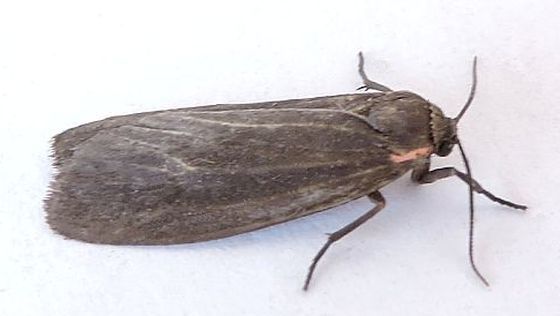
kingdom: Animalia
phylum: Arthropoda
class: Insecta
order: Lepidoptera
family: Erebidae
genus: Hypoprepia
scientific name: Hypoprepia inculta
